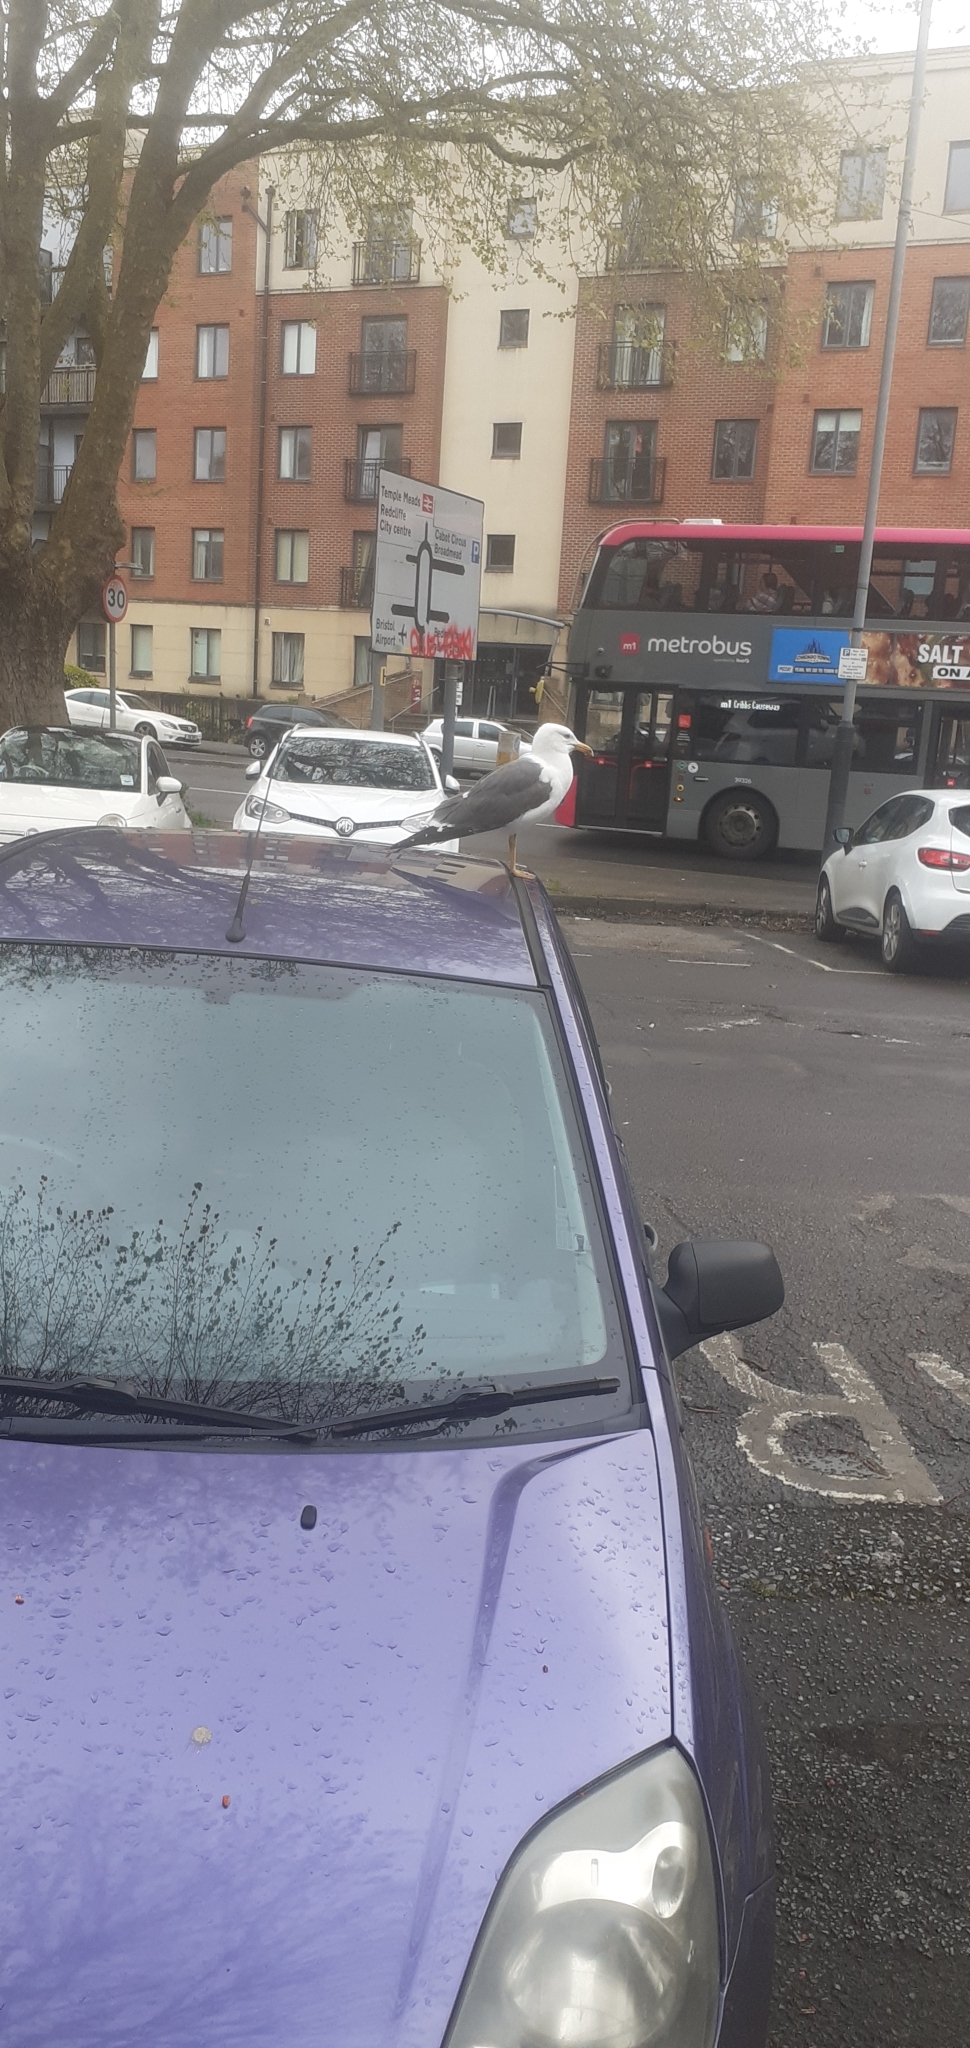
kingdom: Animalia
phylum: Chordata
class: Aves
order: Charadriiformes
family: Laridae
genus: Larus
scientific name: Larus fuscus
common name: Lesser black-backed gull
